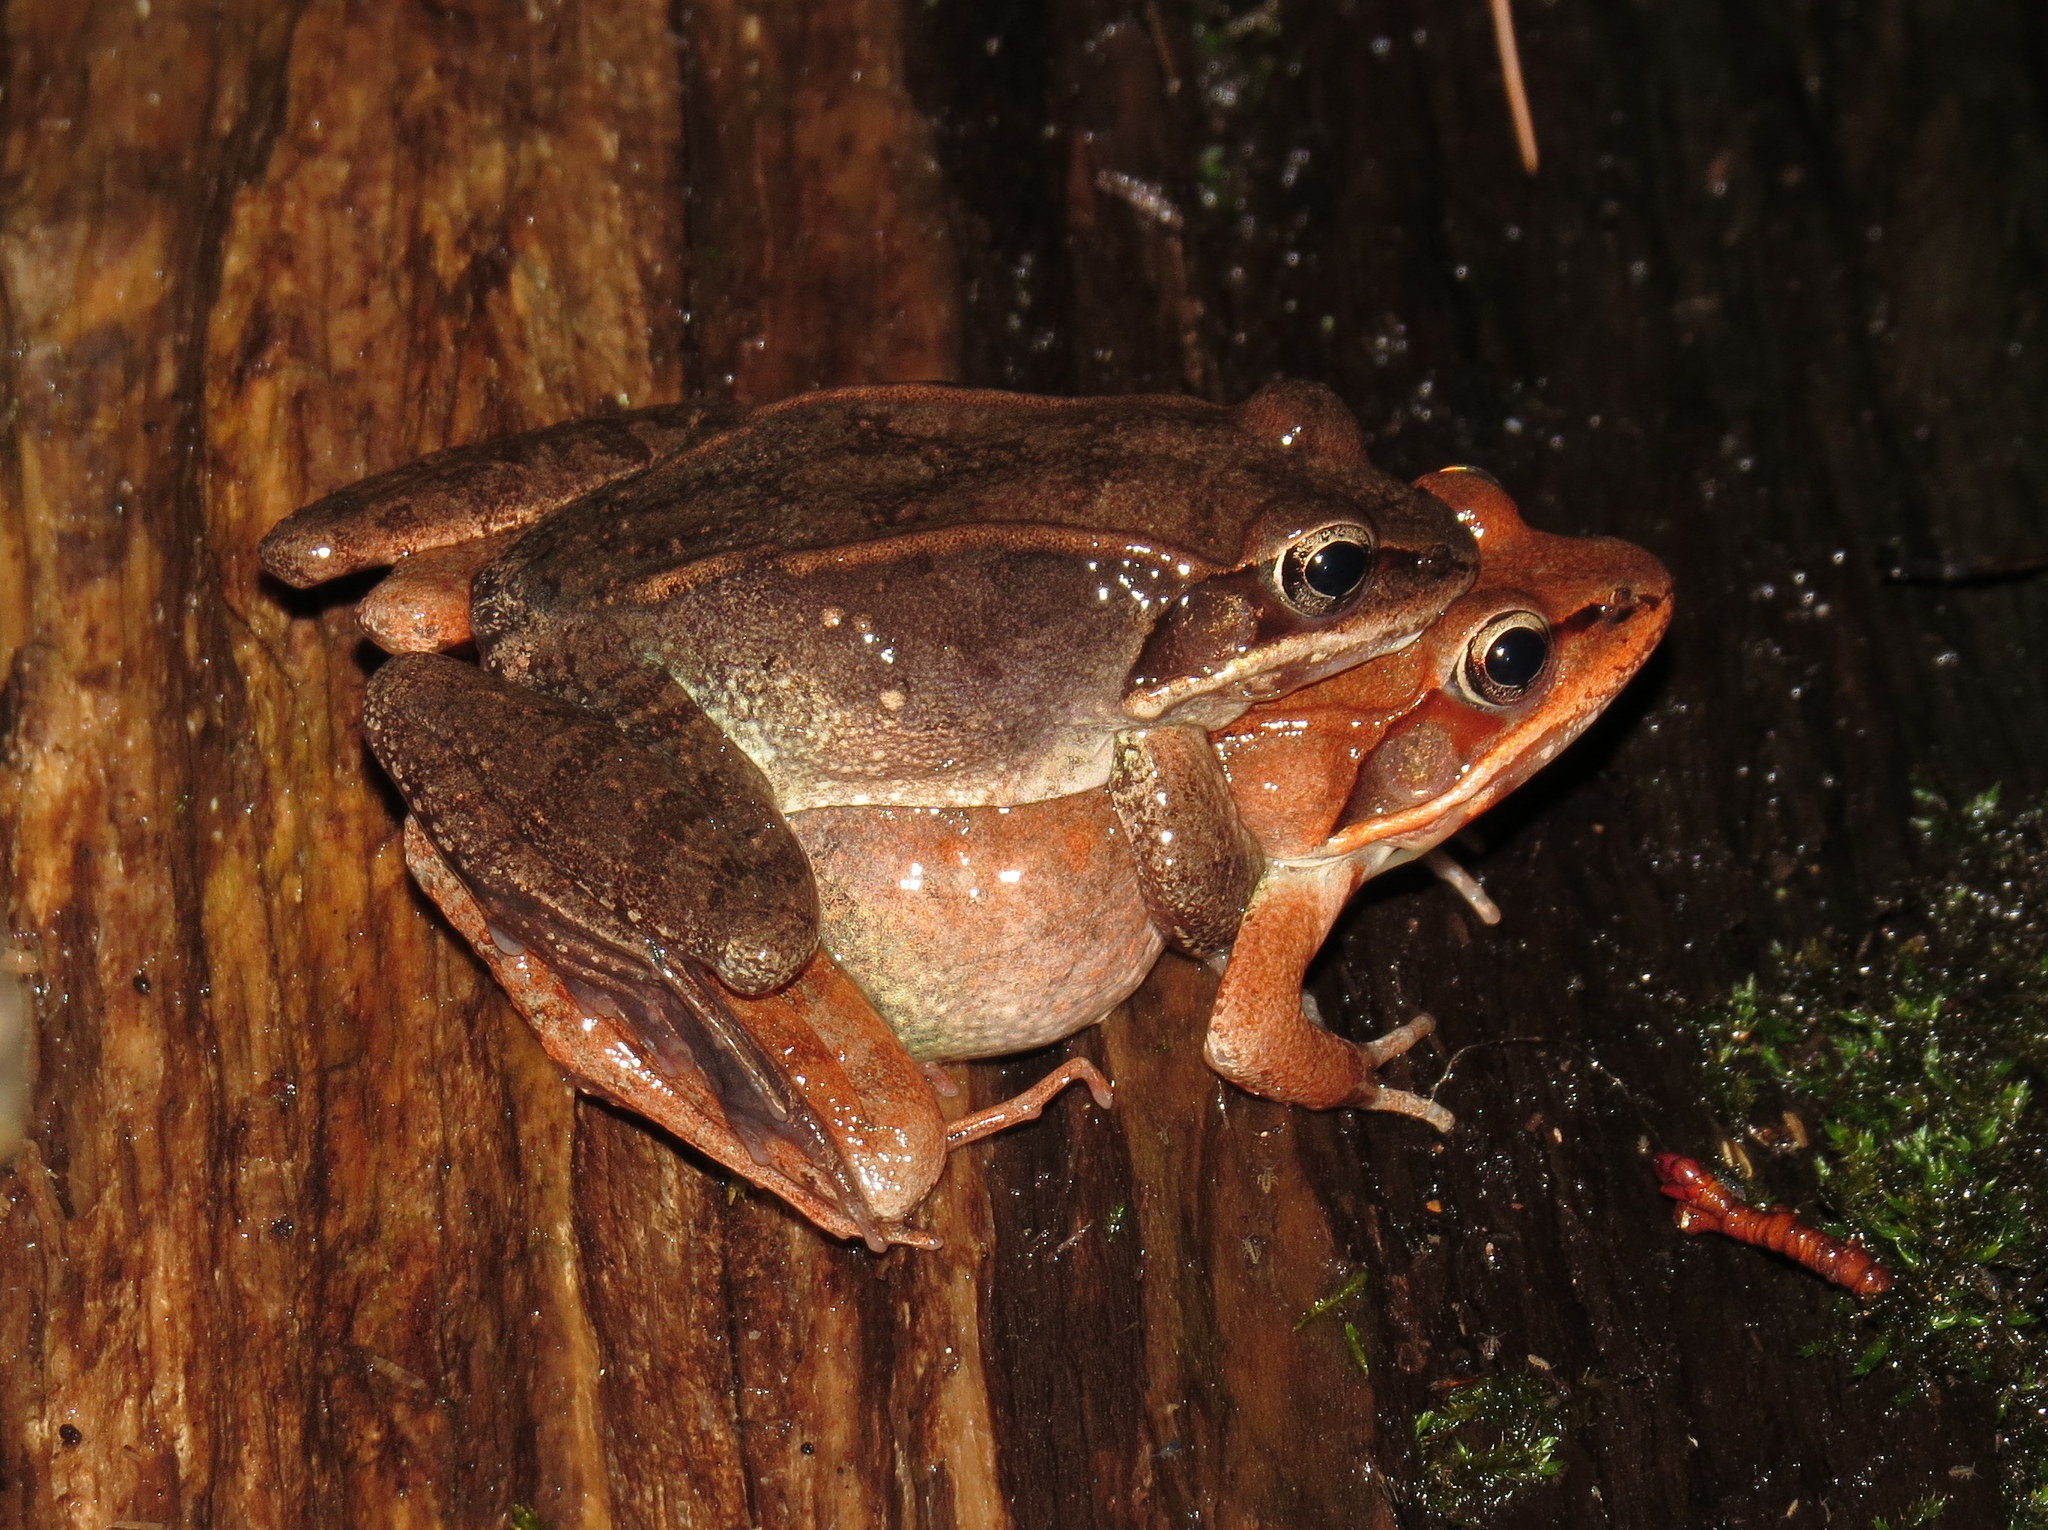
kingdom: Animalia
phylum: Chordata
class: Amphibia
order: Anura
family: Ranidae
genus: Lithobates
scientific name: Lithobates sylvaticus
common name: Wood frog
